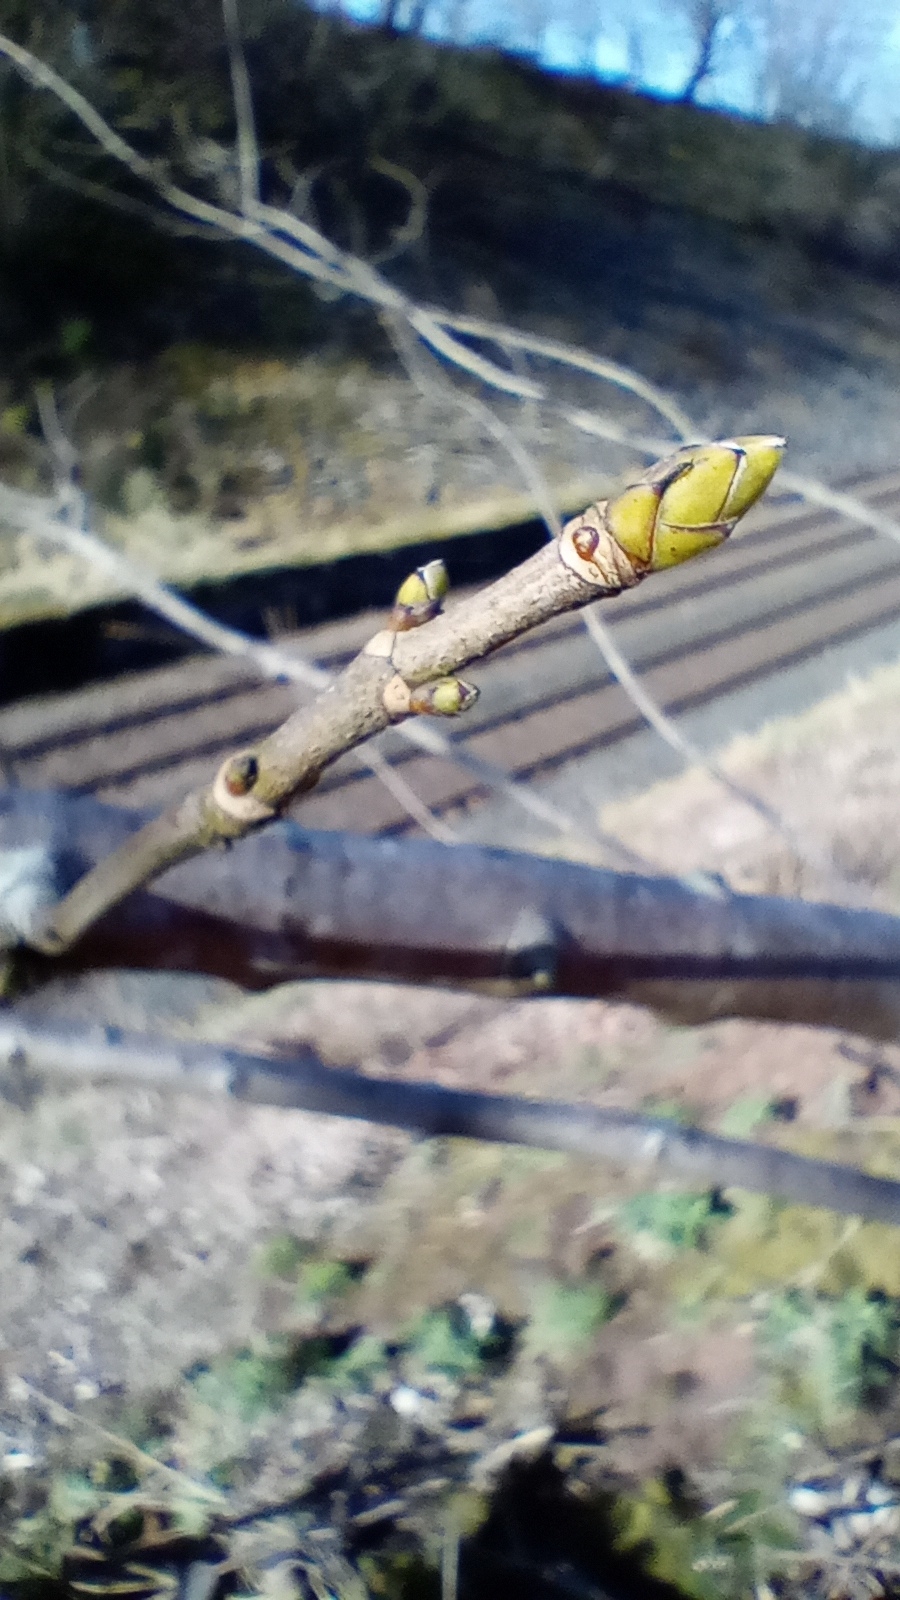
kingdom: Plantae
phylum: Tracheophyta
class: Magnoliopsida
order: Sapindales
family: Sapindaceae
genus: Acer
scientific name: Acer pseudoplatanus
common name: Sycamore
